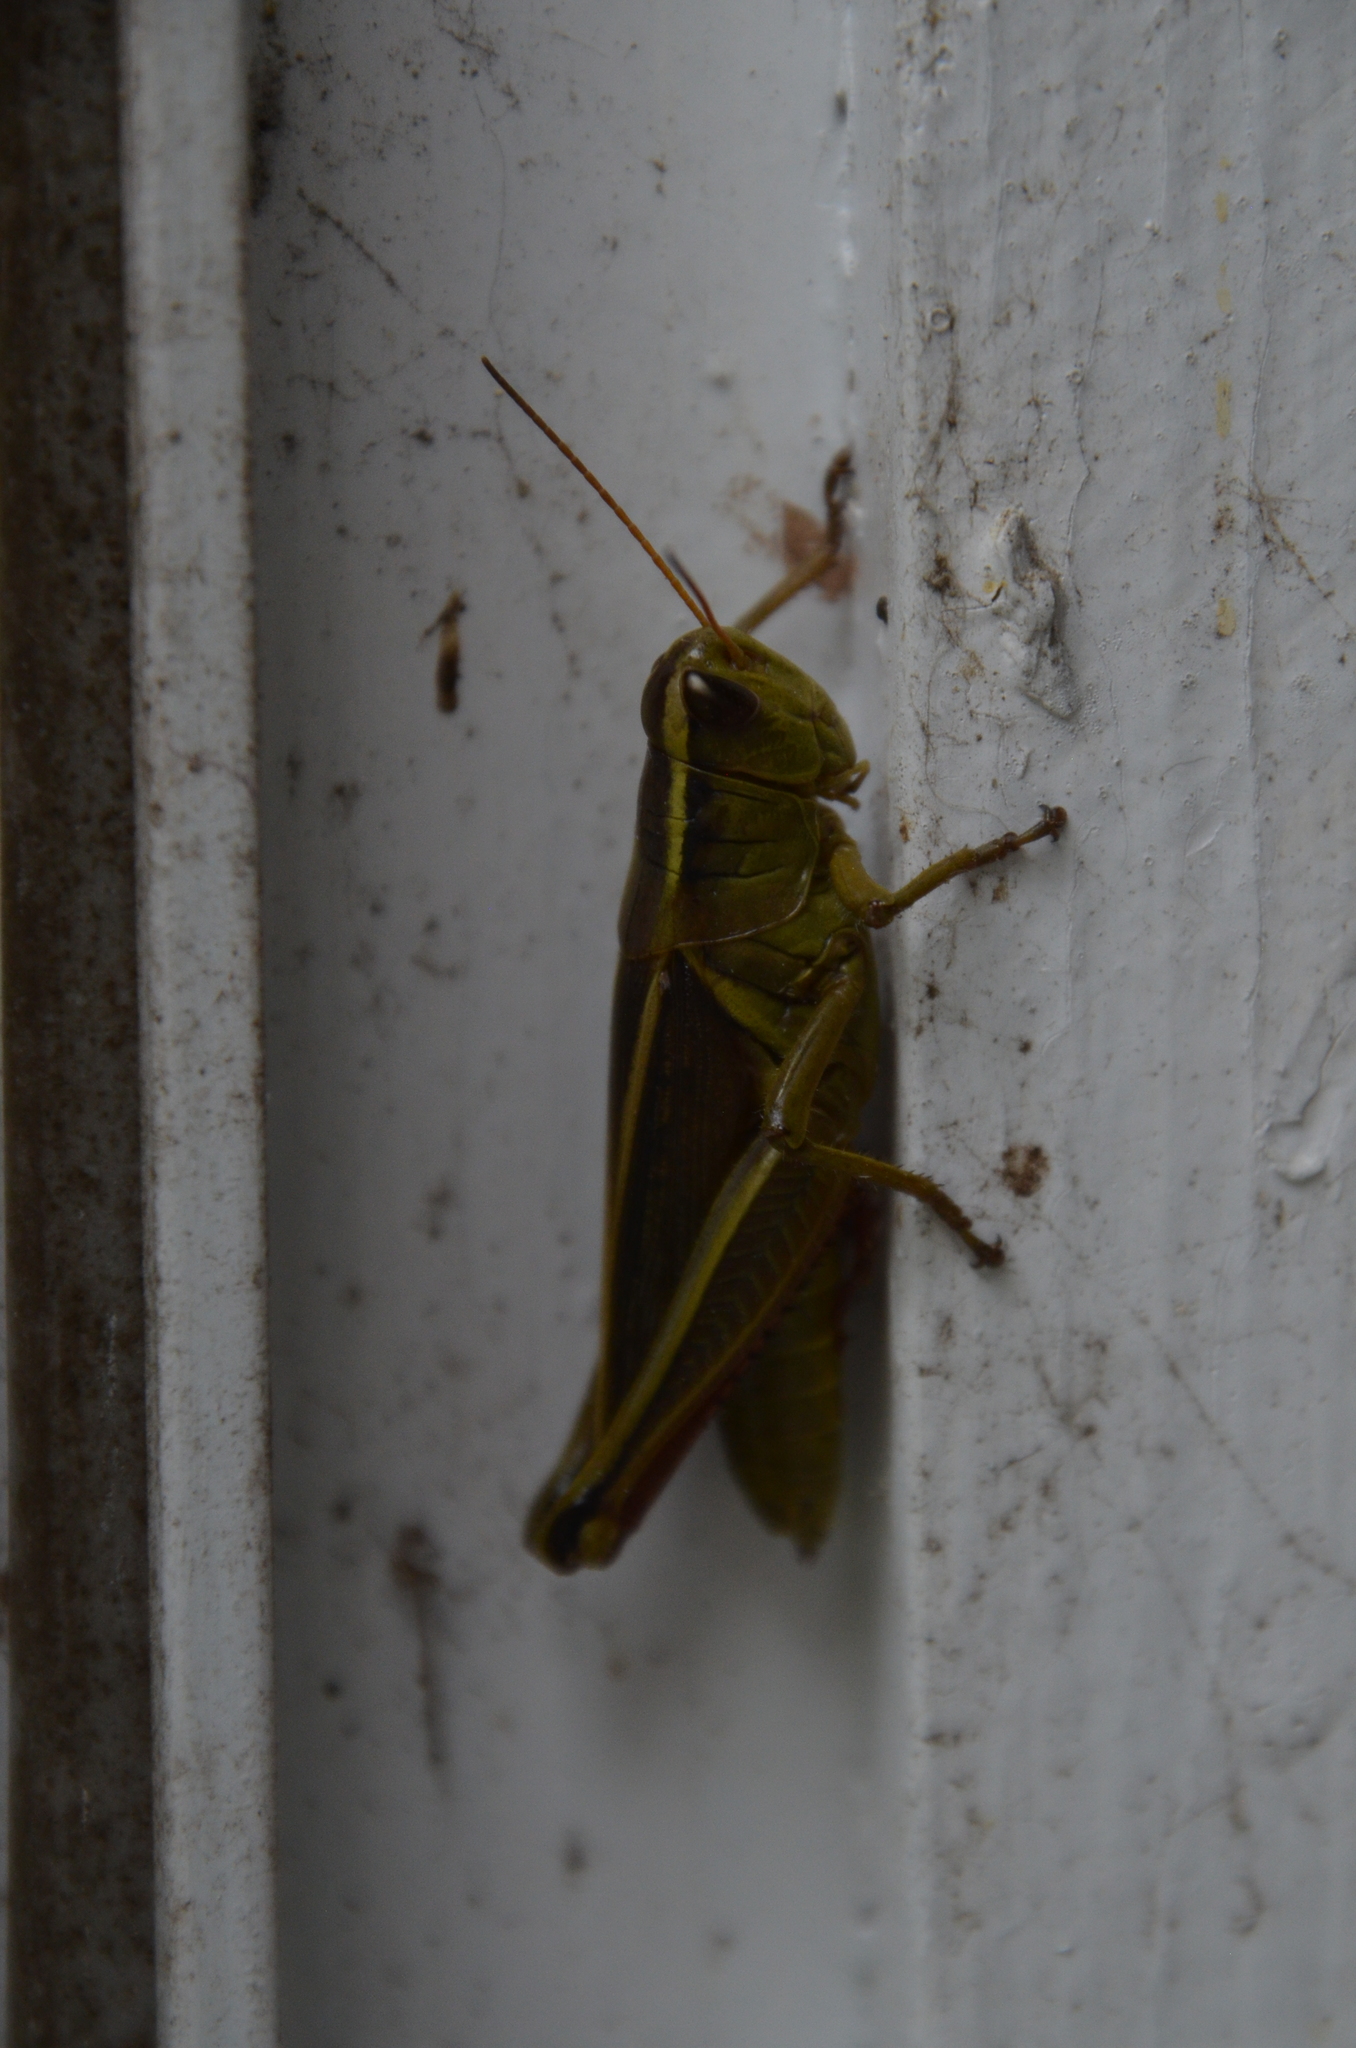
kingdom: Animalia
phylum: Arthropoda
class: Insecta
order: Orthoptera
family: Acrididae
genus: Melanoplus
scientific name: Melanoplus bivittatus
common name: Two-striped grasshopper
